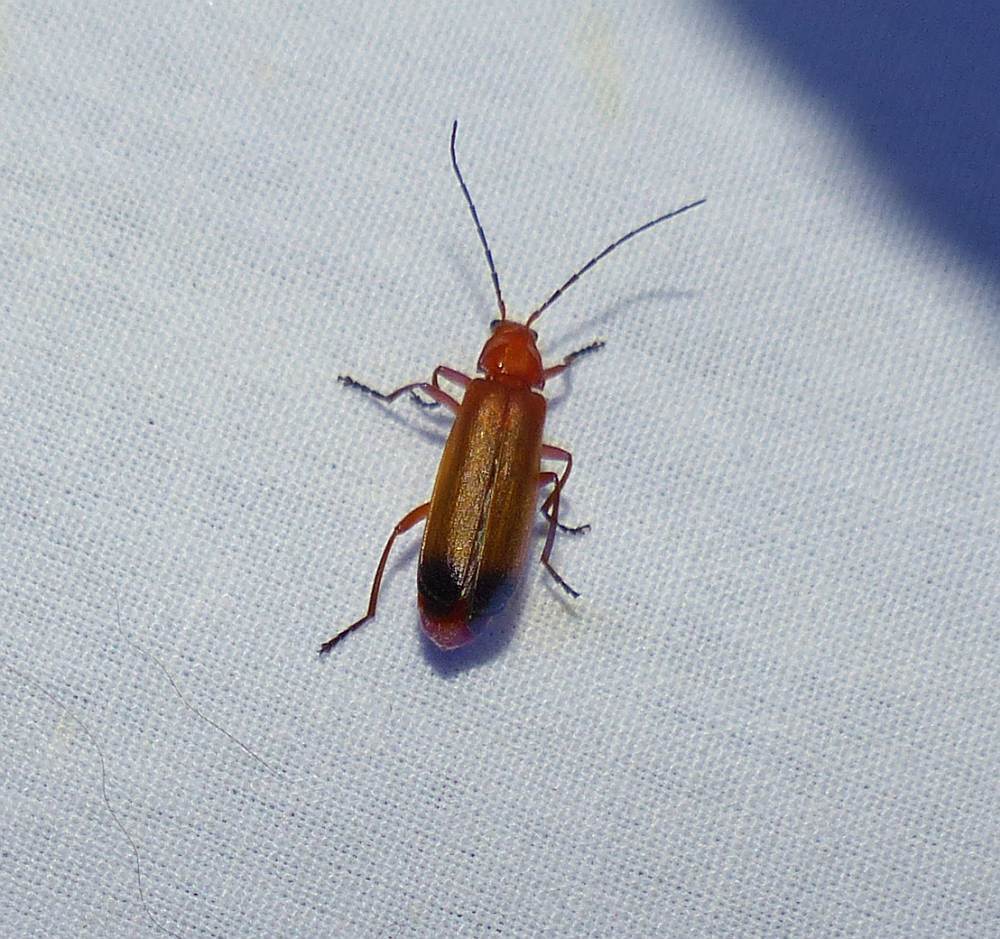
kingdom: Animalia
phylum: Arthropoda
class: Insecta
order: Coleoptera
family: Cantharidae
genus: Rhagonycha
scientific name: Rhagonycha fulva
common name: Common red soldier beetle
